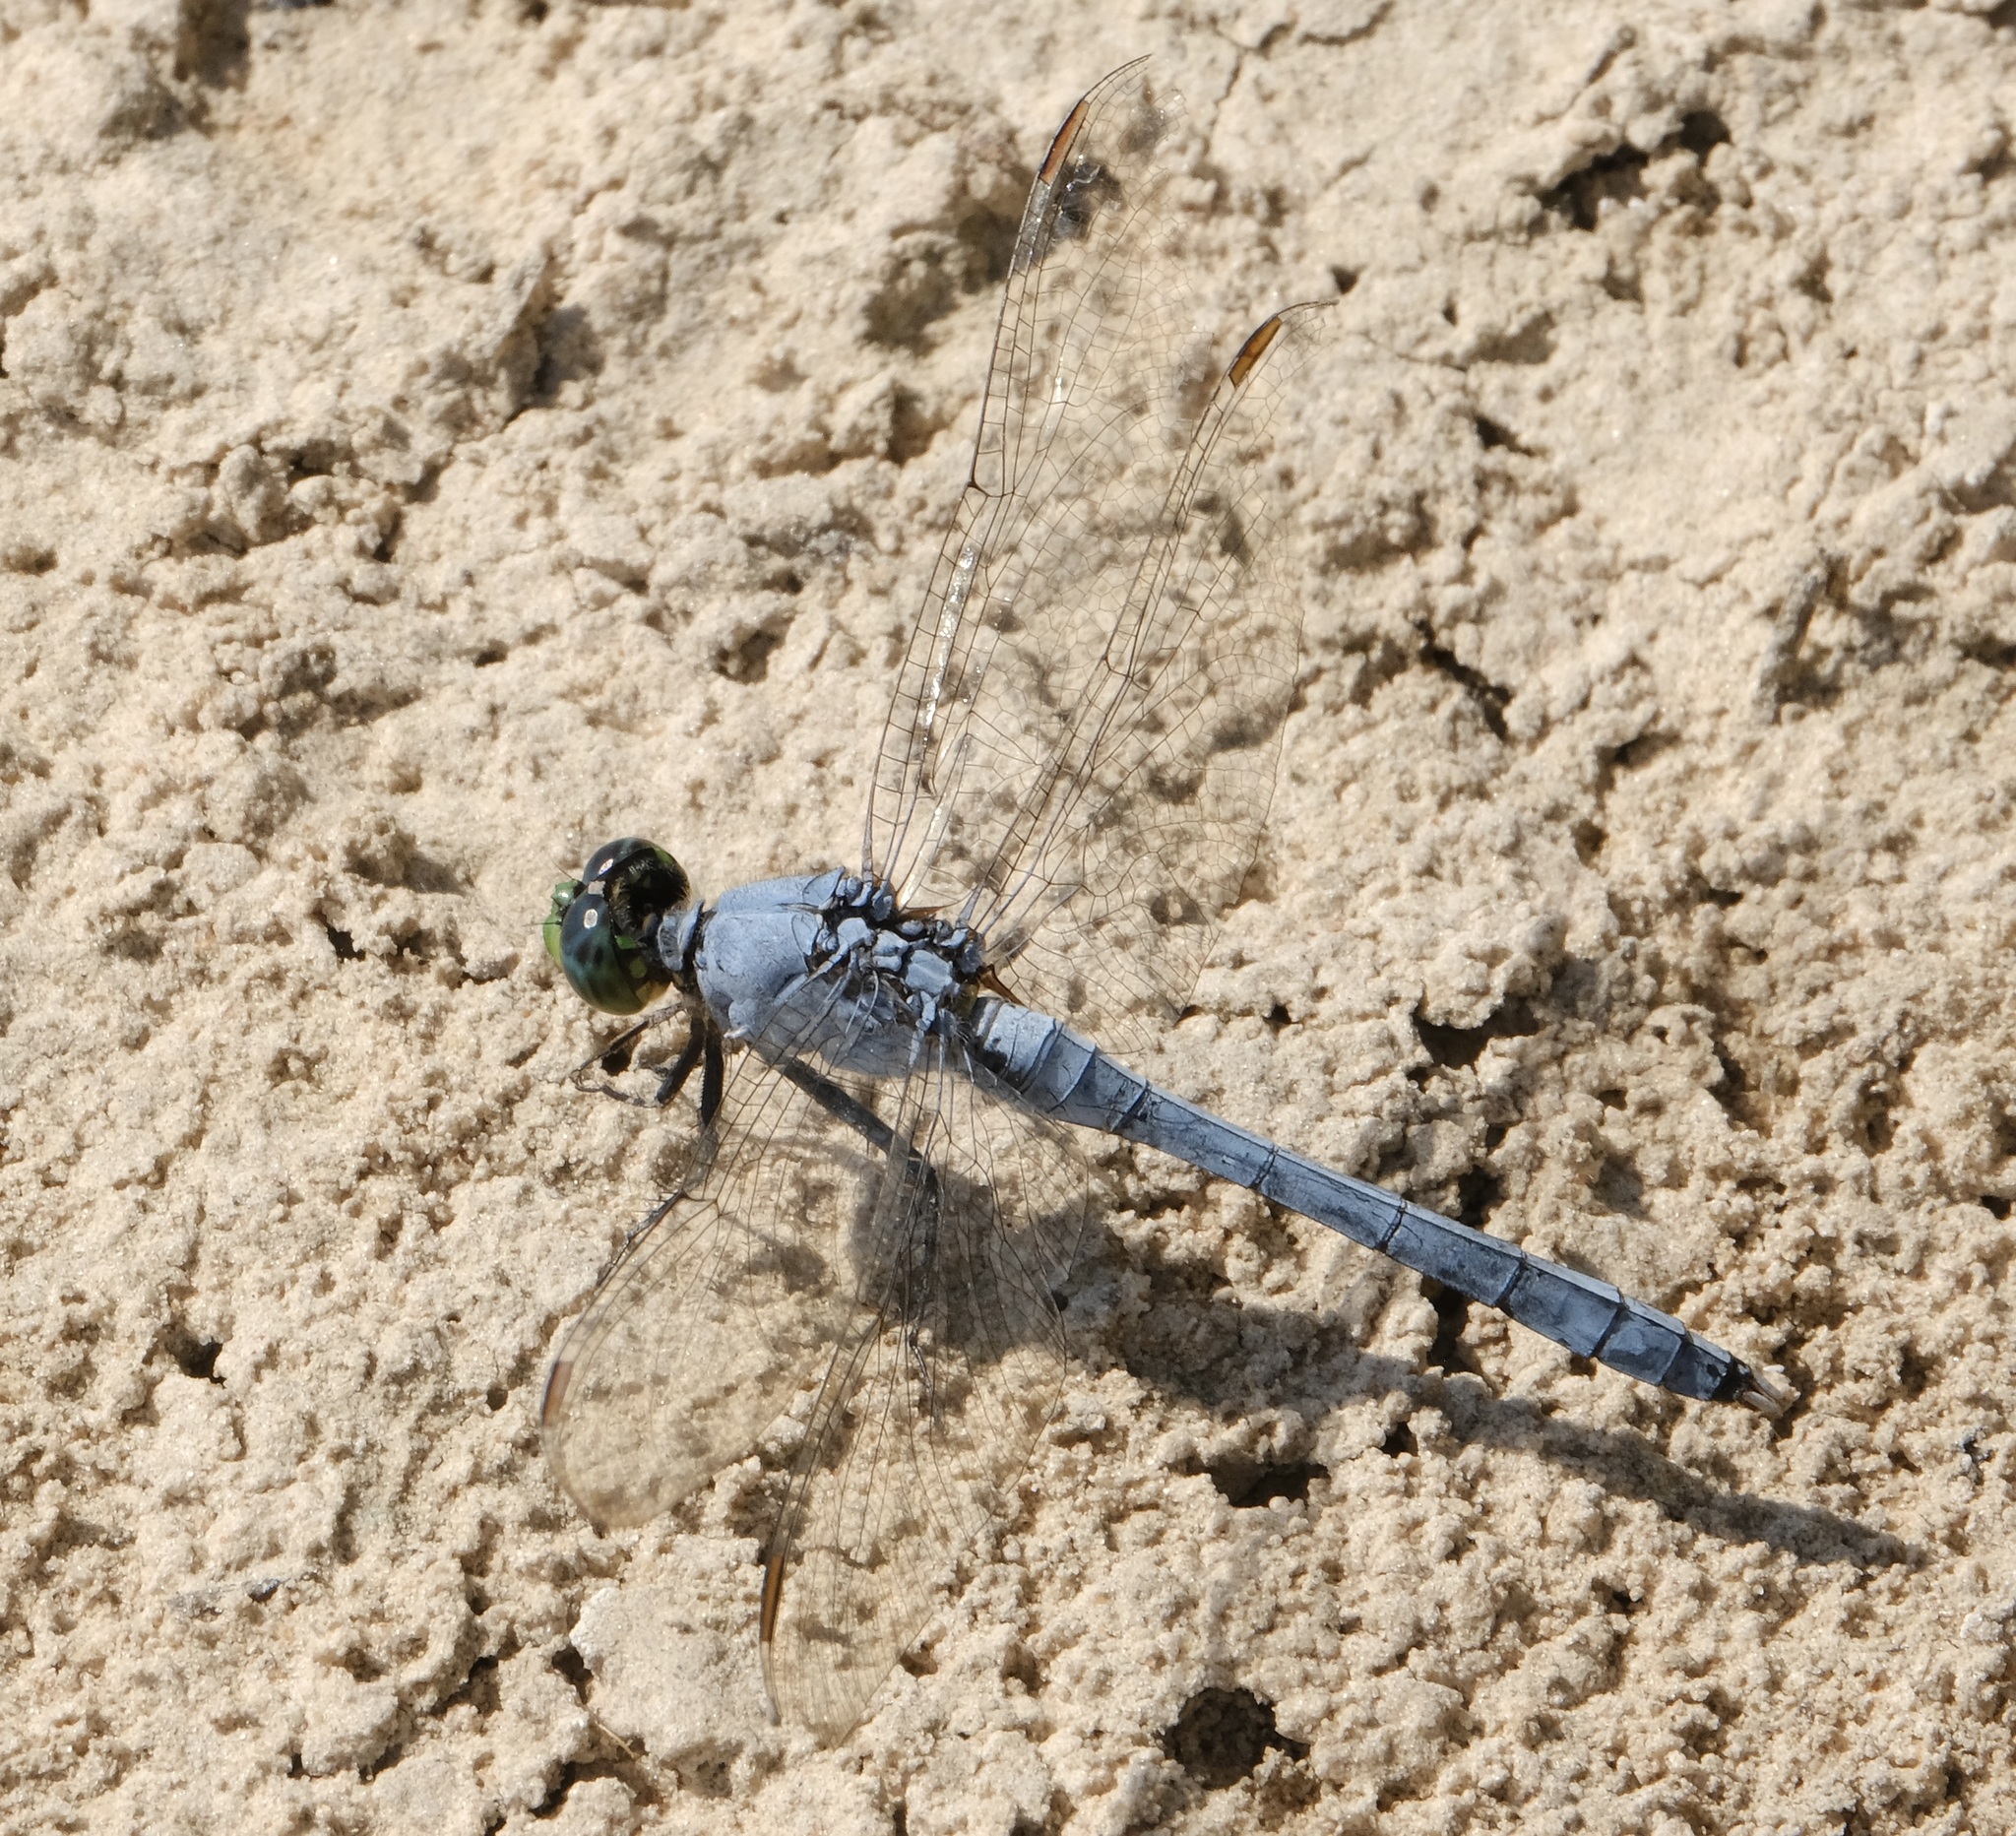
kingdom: Animalia
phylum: Arthropoda
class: Insecta
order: Odonata
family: Libellulidae
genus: Erythemis
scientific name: Erythemis simplicicollis
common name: Eastern pondhawk
